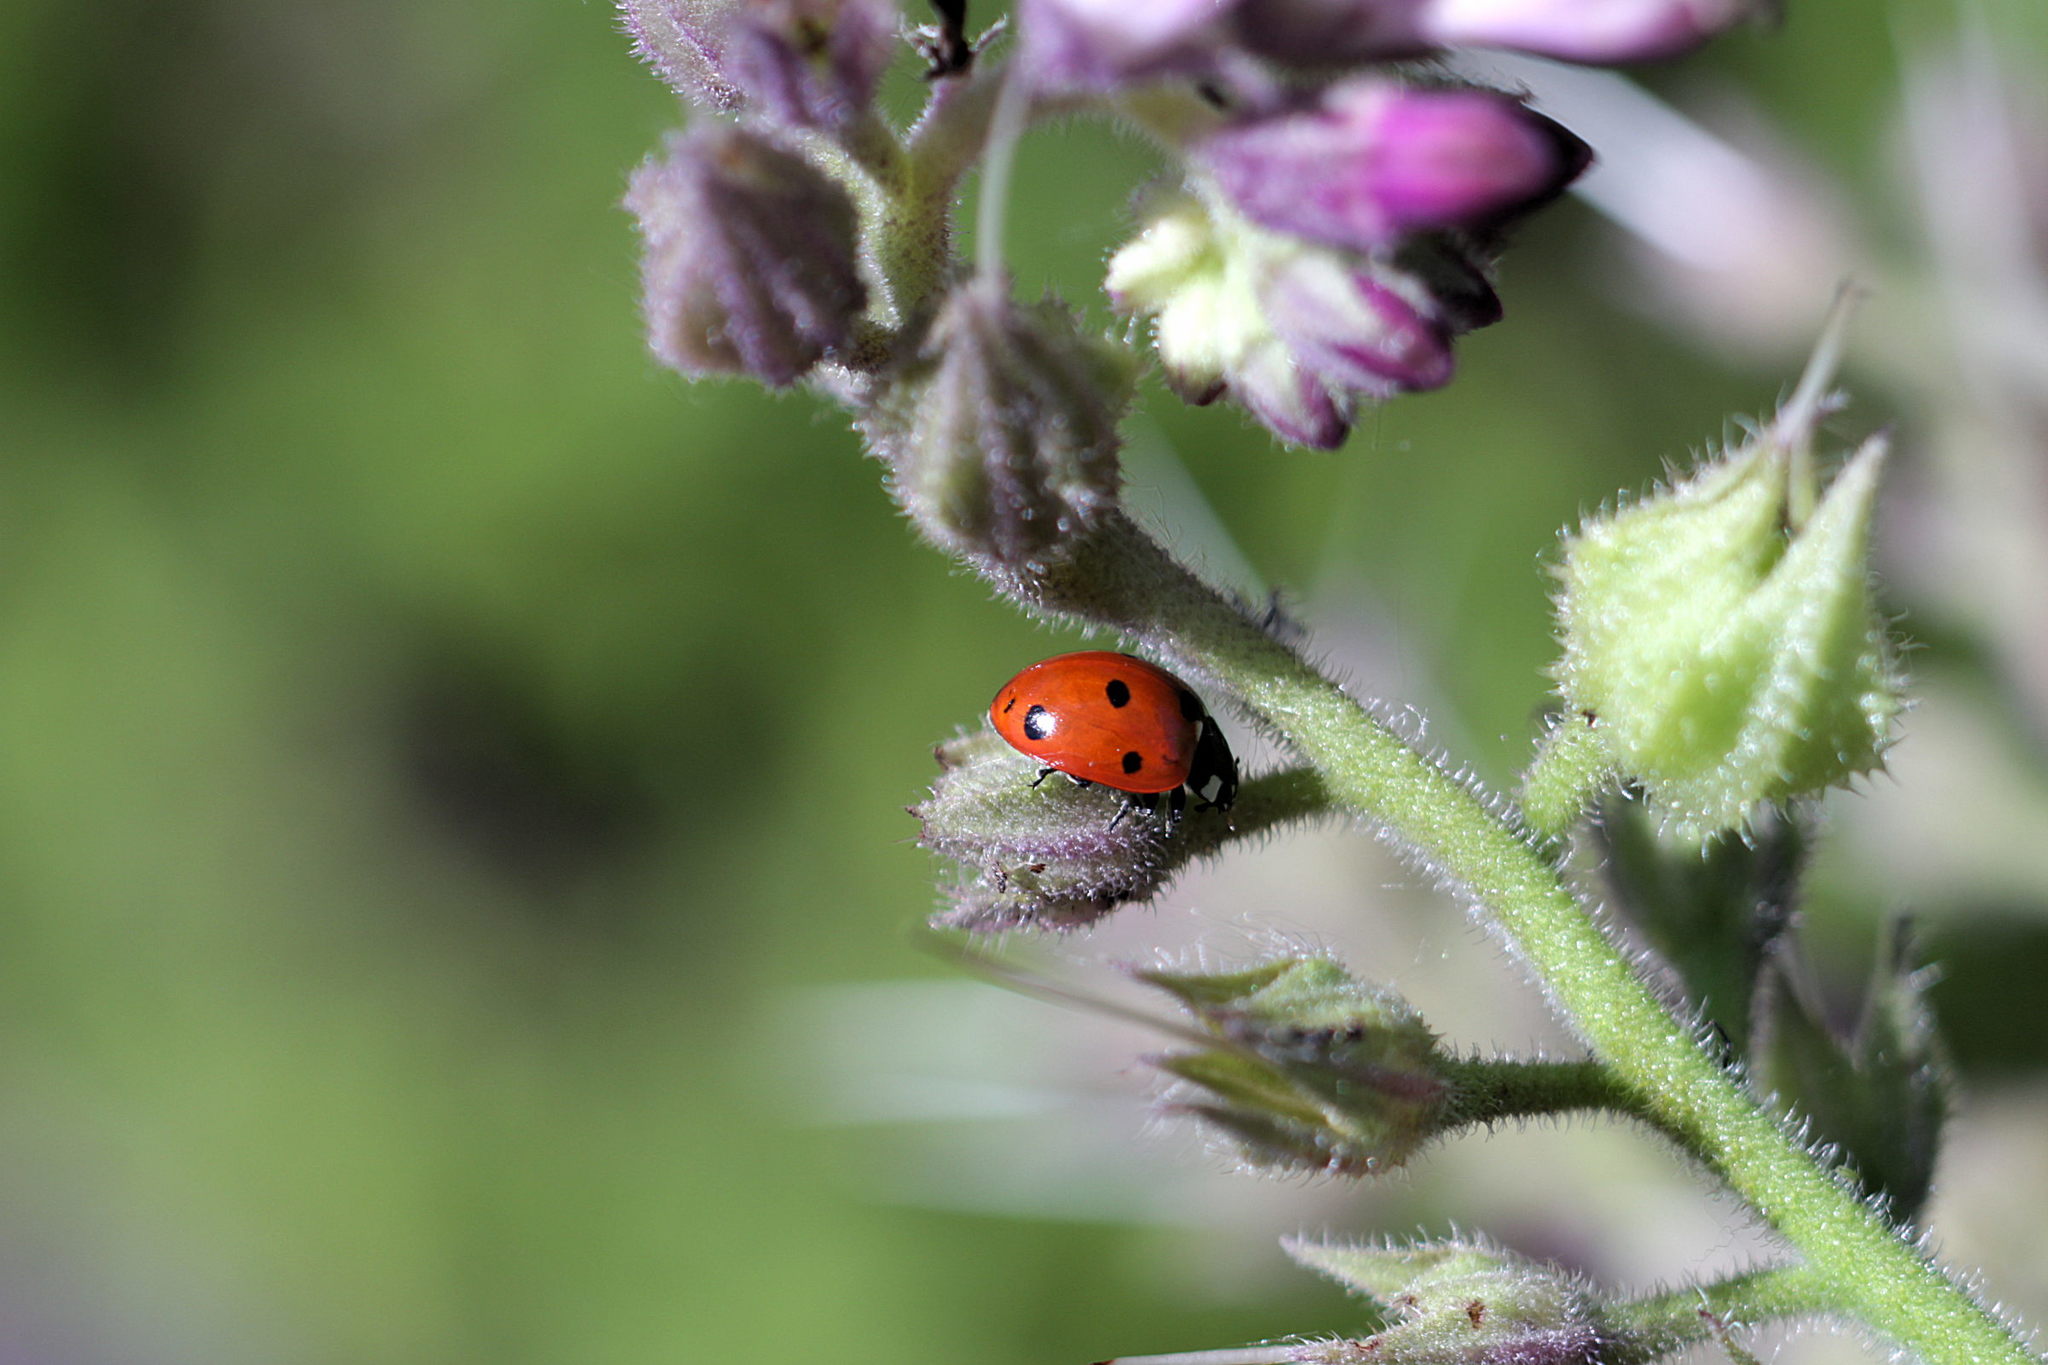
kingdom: Animalia
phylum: Arthropoda
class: Insecta
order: Coleoptera
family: Coccinellidae
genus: Coccinella
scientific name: Coccinella septempunctata
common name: Sevenspotted lady beetle
